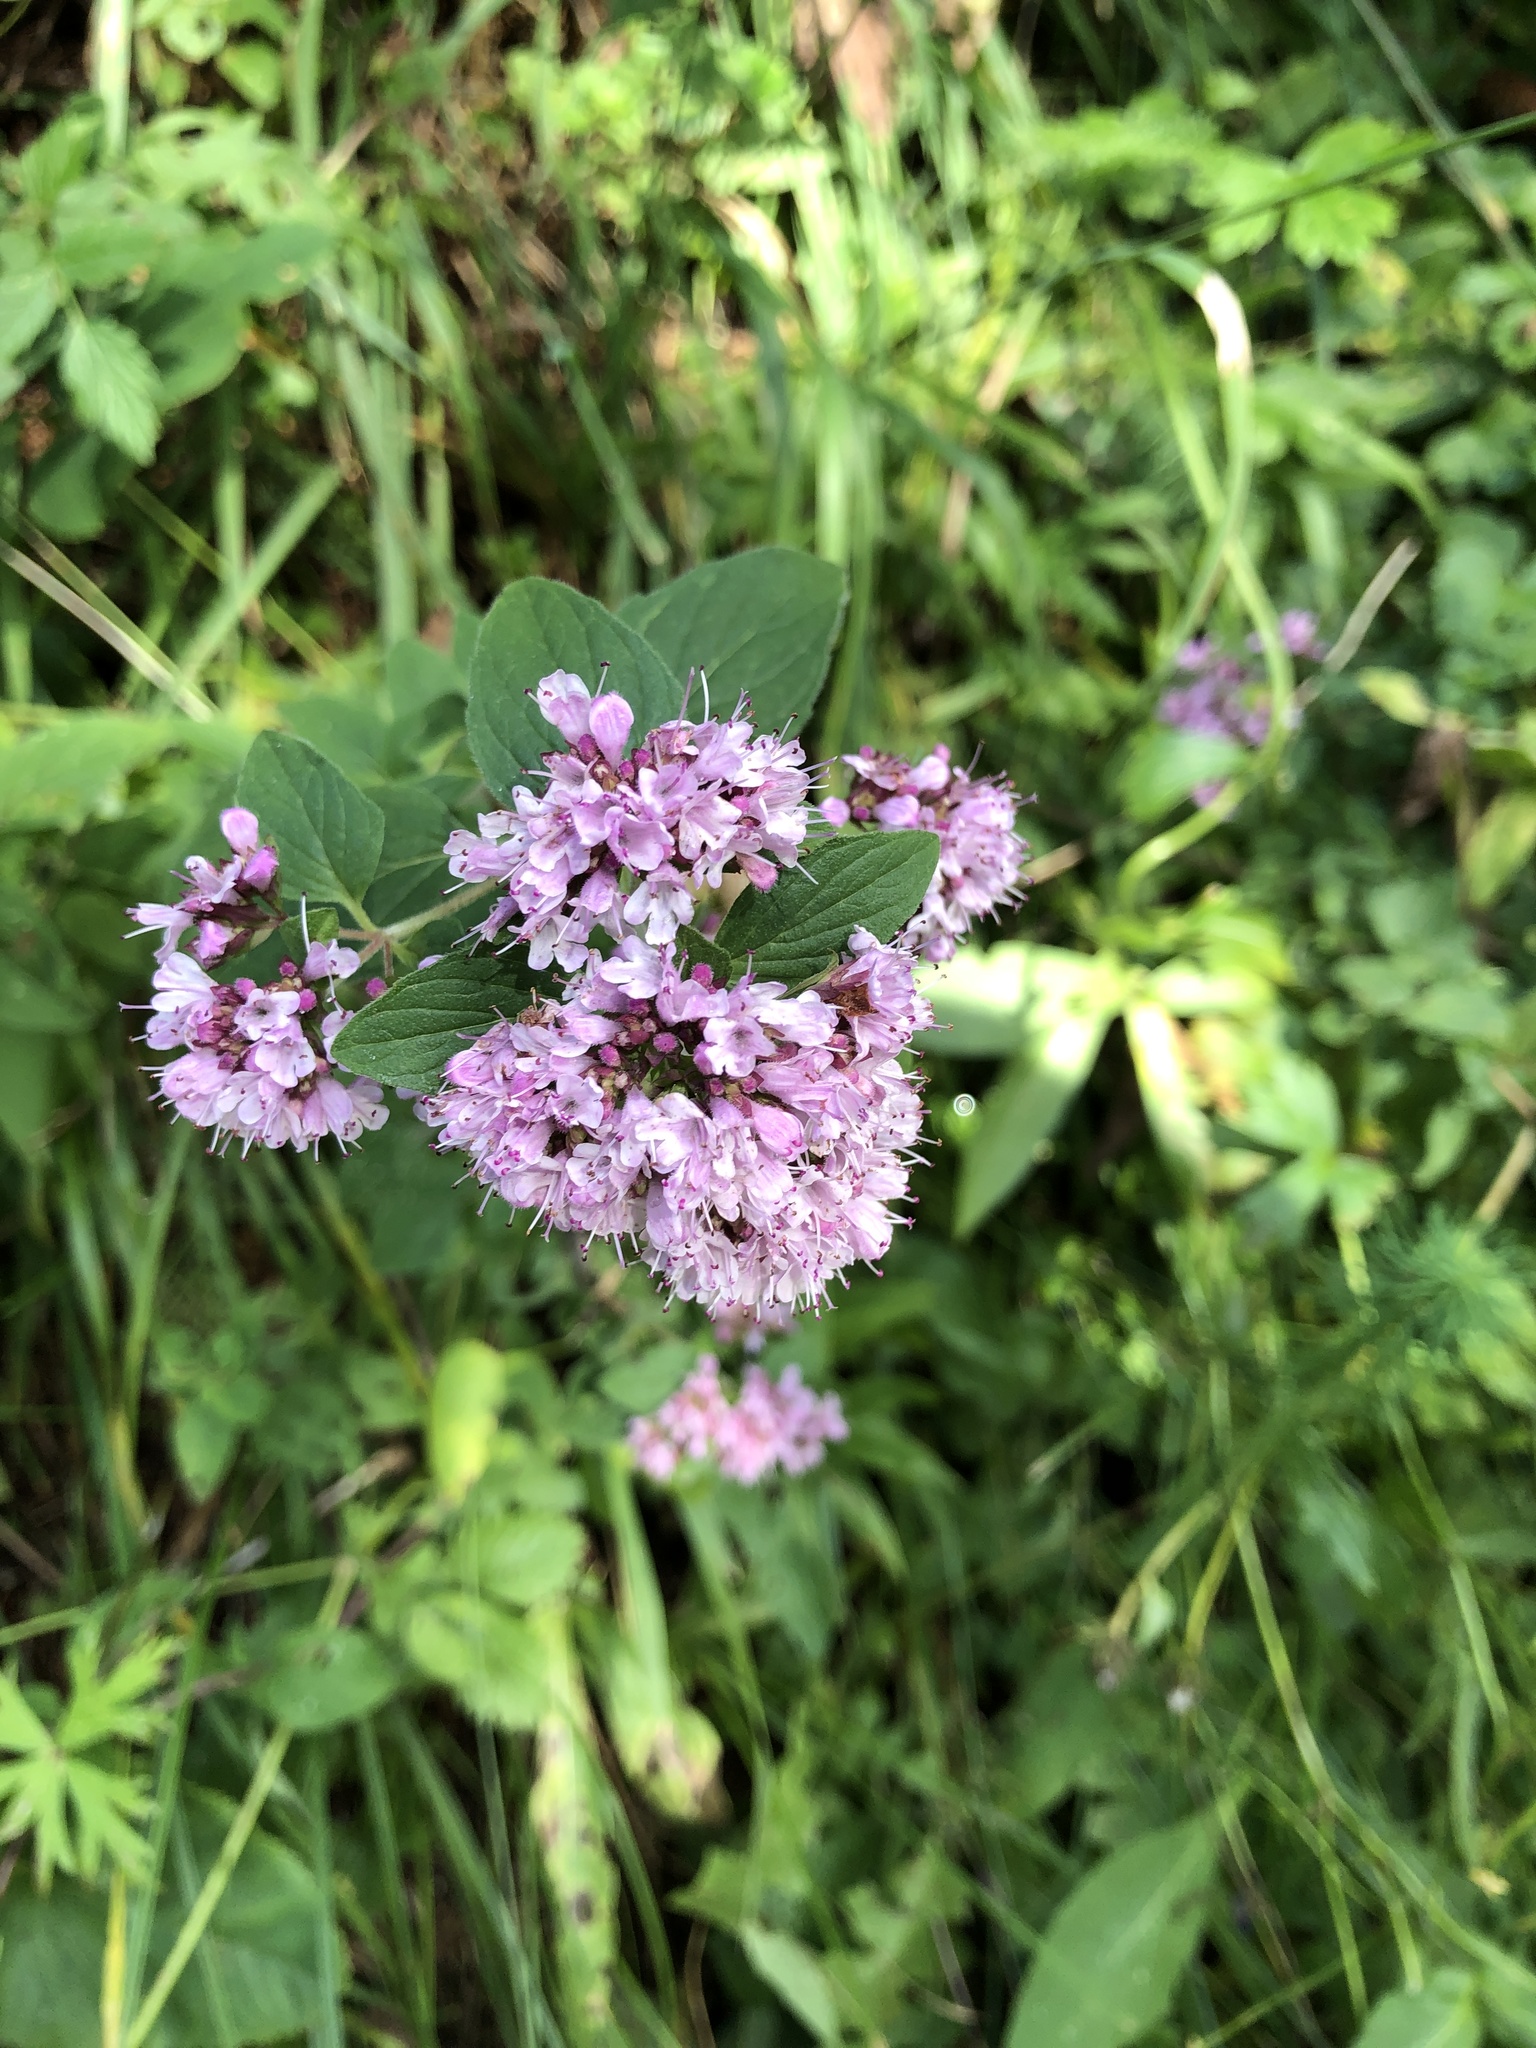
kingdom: Plantae
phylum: Tracheophyta
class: Magnoliopsida
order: Lamiales
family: Lamiaceae
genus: Origanum
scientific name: Origanum vulgare
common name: Wild marjoram
